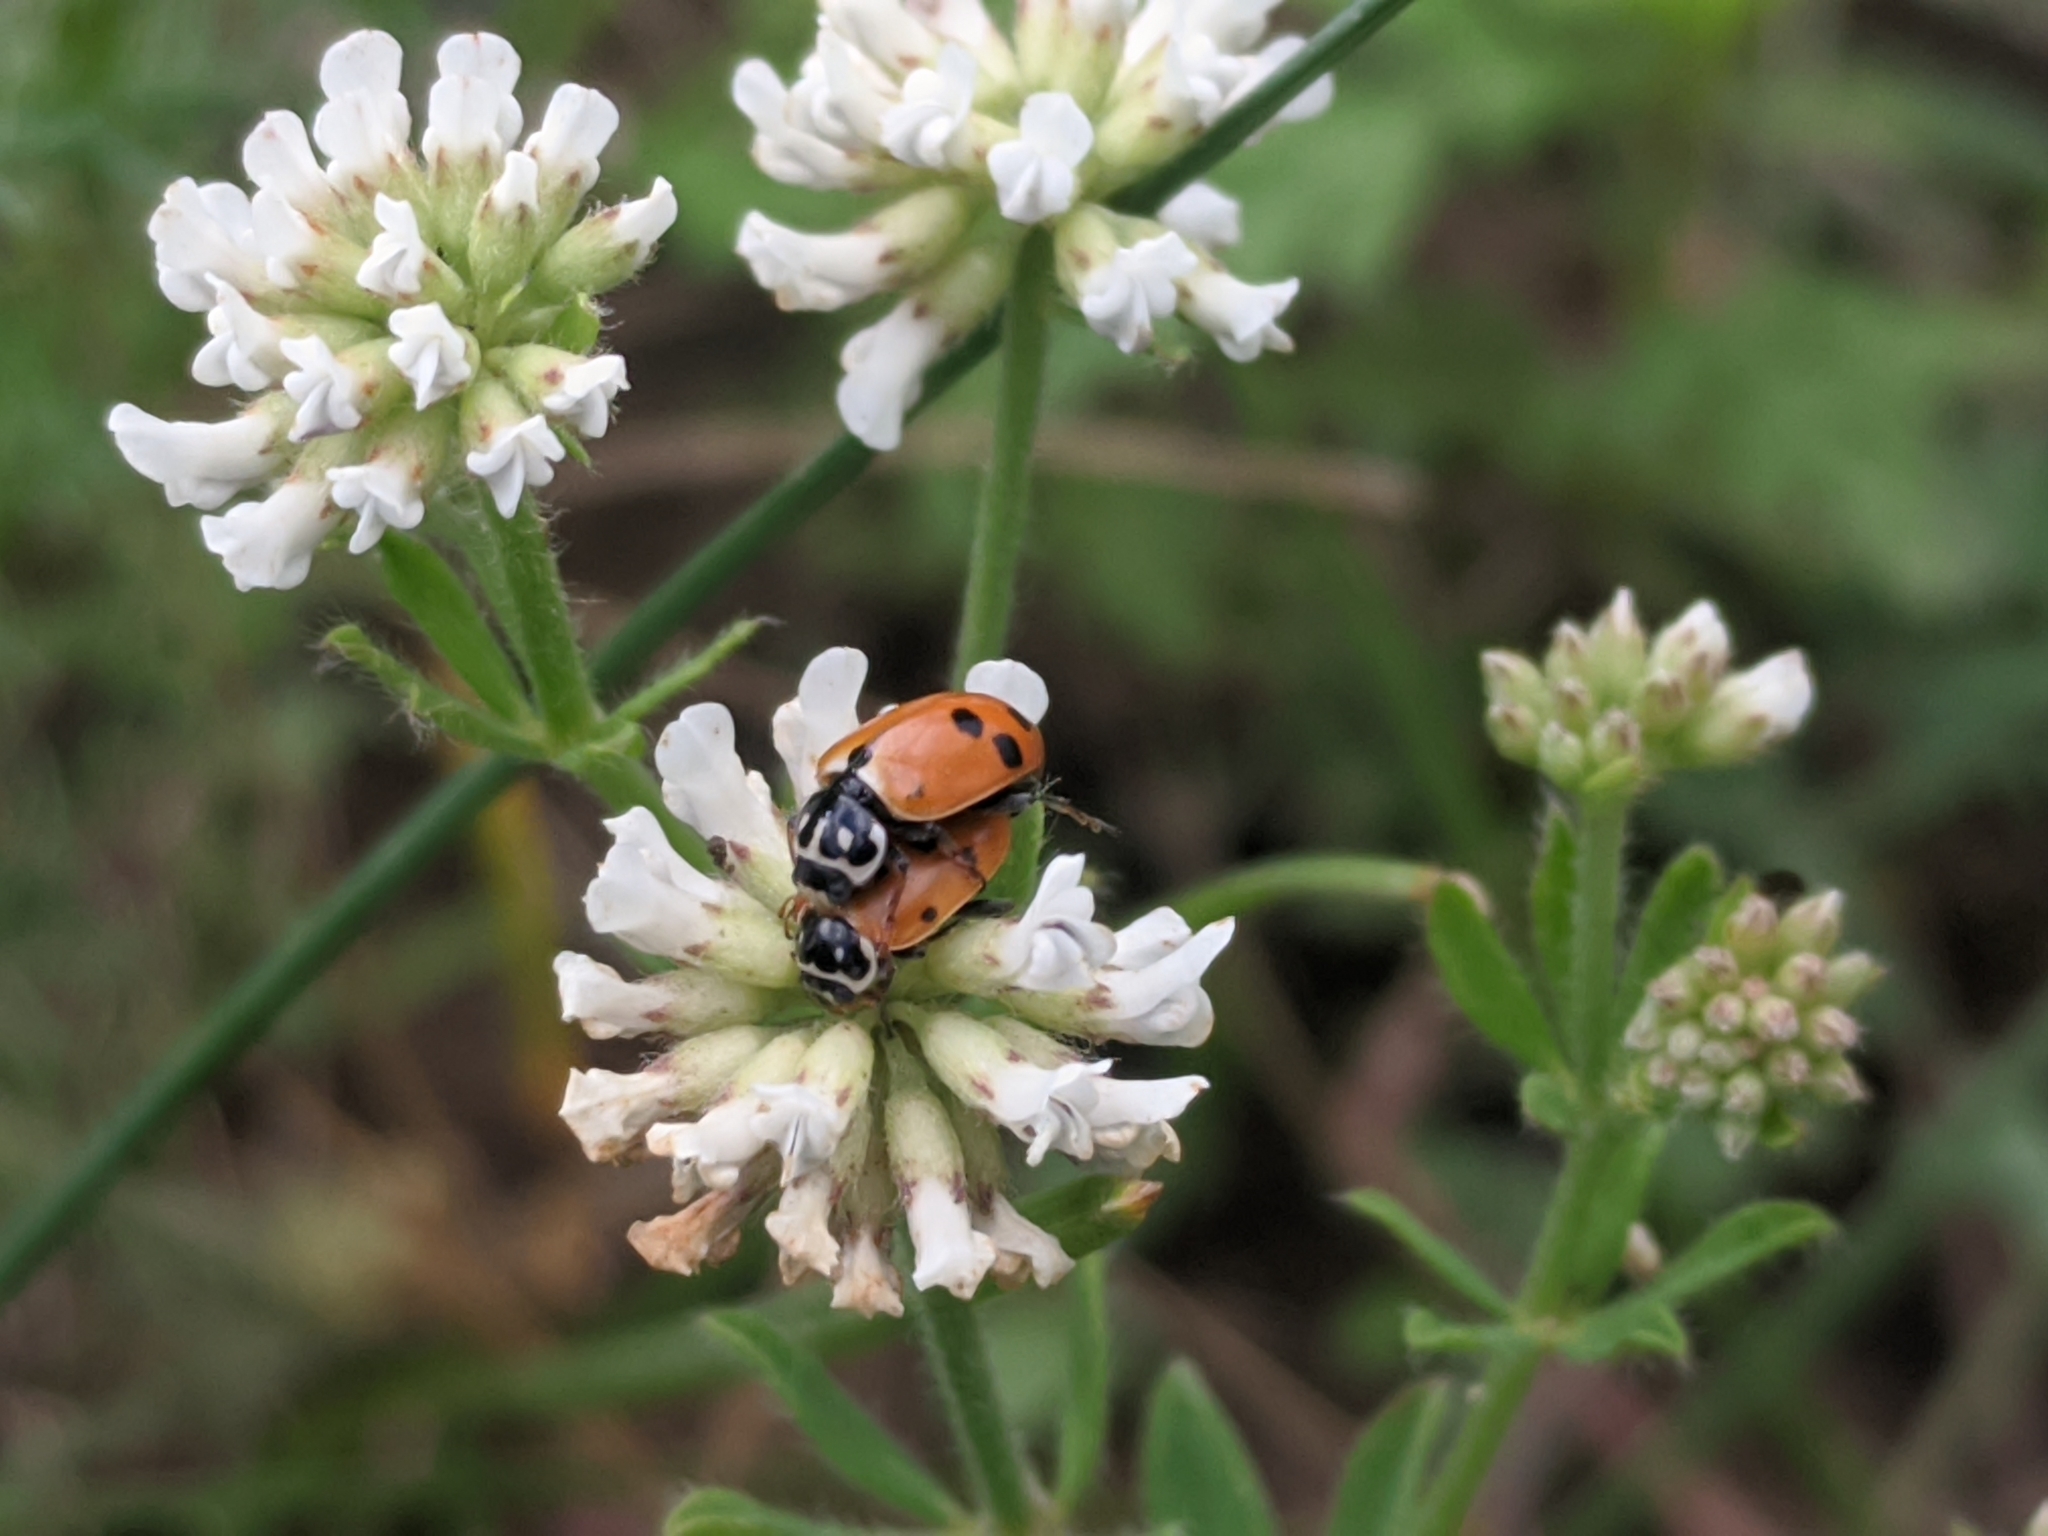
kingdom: Animalia
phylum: Arthropoda
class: Insecta
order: Coleoptera
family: Coccinellidae
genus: Hippodamia
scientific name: Hippodamia variegata
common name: Ladybird beetle
